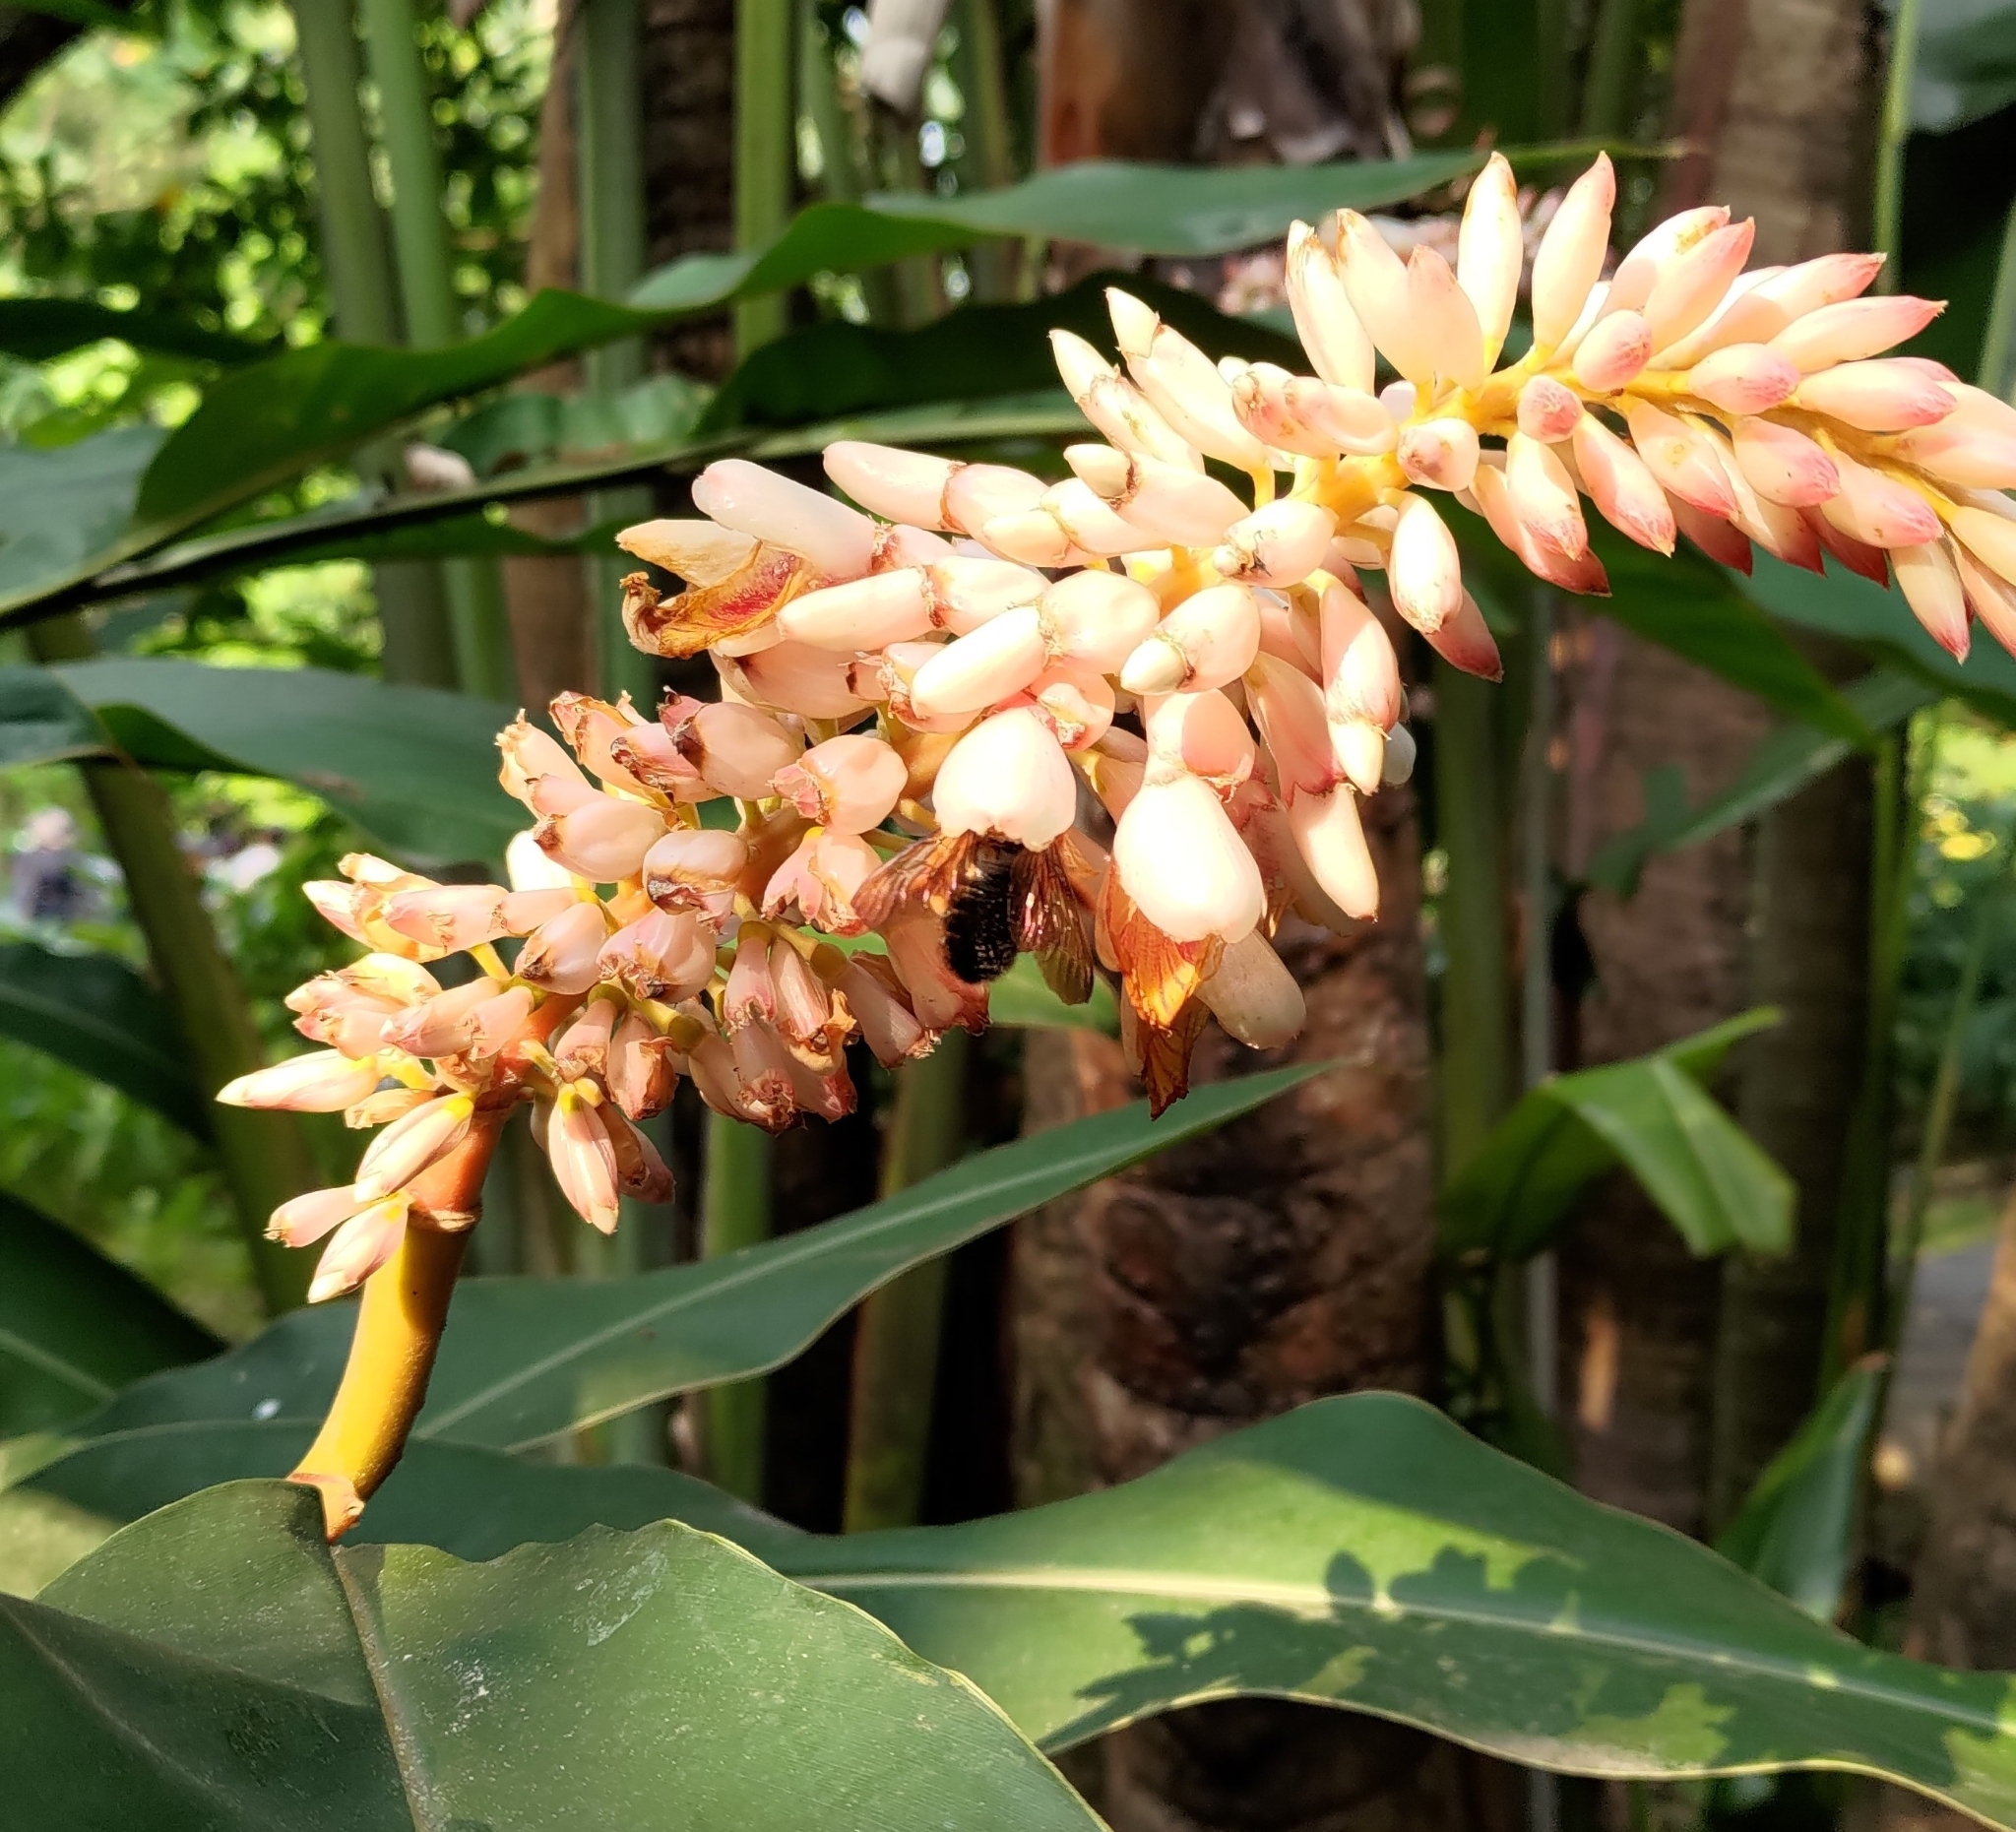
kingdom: Animalia
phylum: Arthropoda
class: Insecta
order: Hymenoptera
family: Apidae
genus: Xylocopa
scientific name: Xylocopa ruficeps
